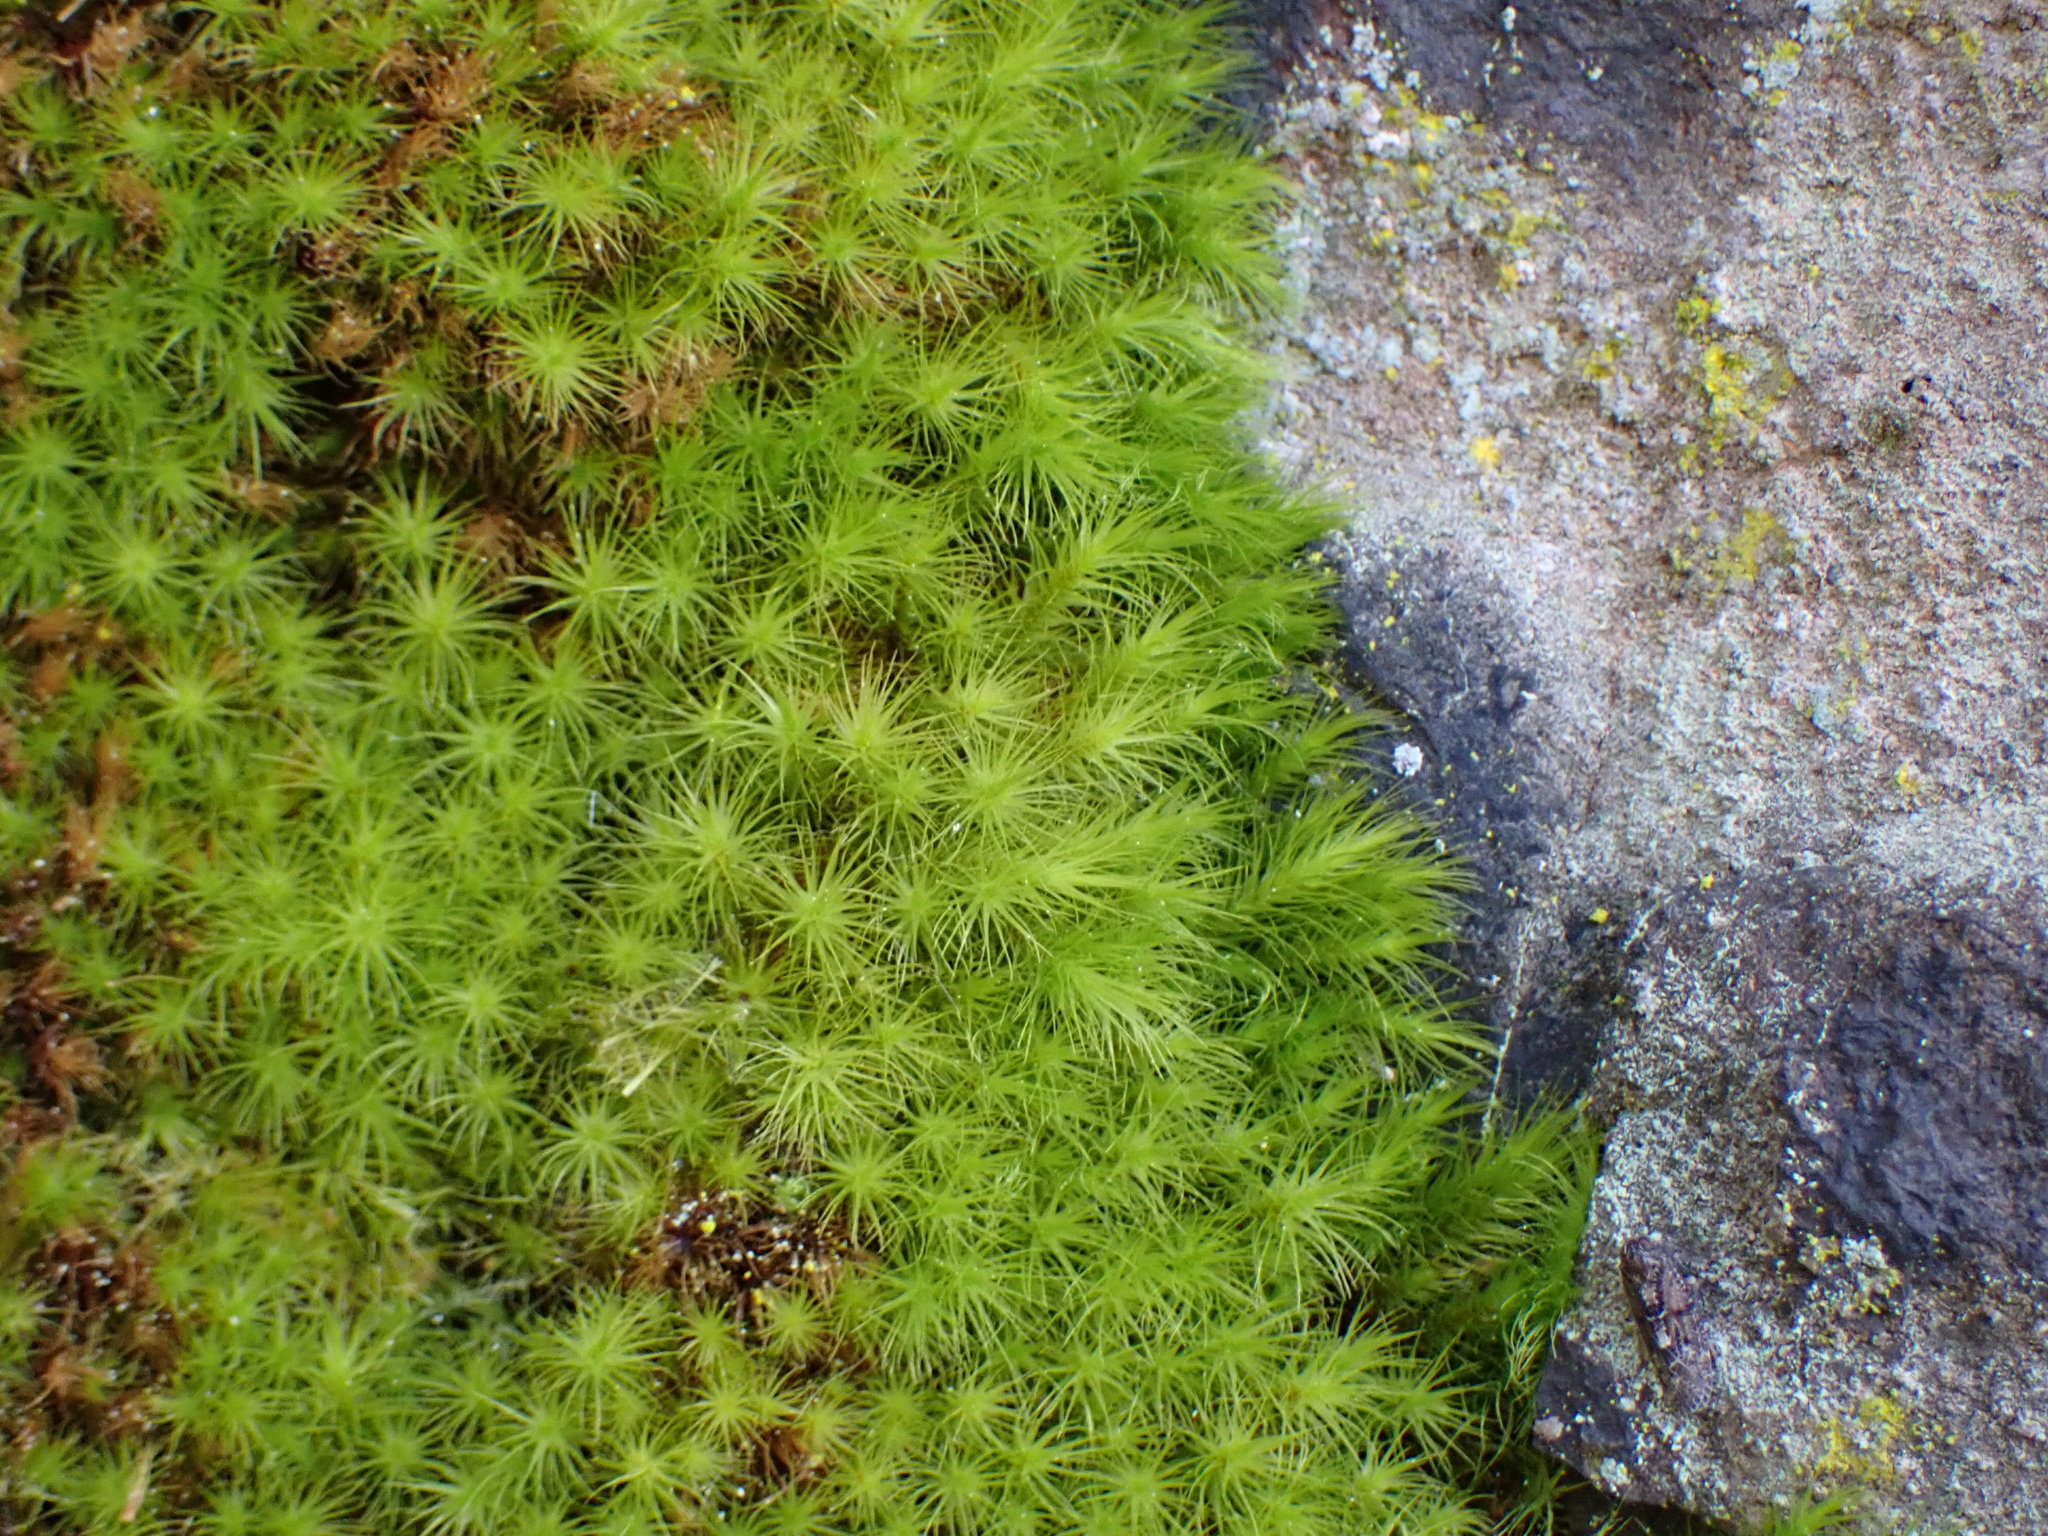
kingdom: Plantae
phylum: Bryophyta
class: Bryopsida
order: Bartramiales
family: Bartramiaceae
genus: Anacolia
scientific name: Anacolia menziesii
